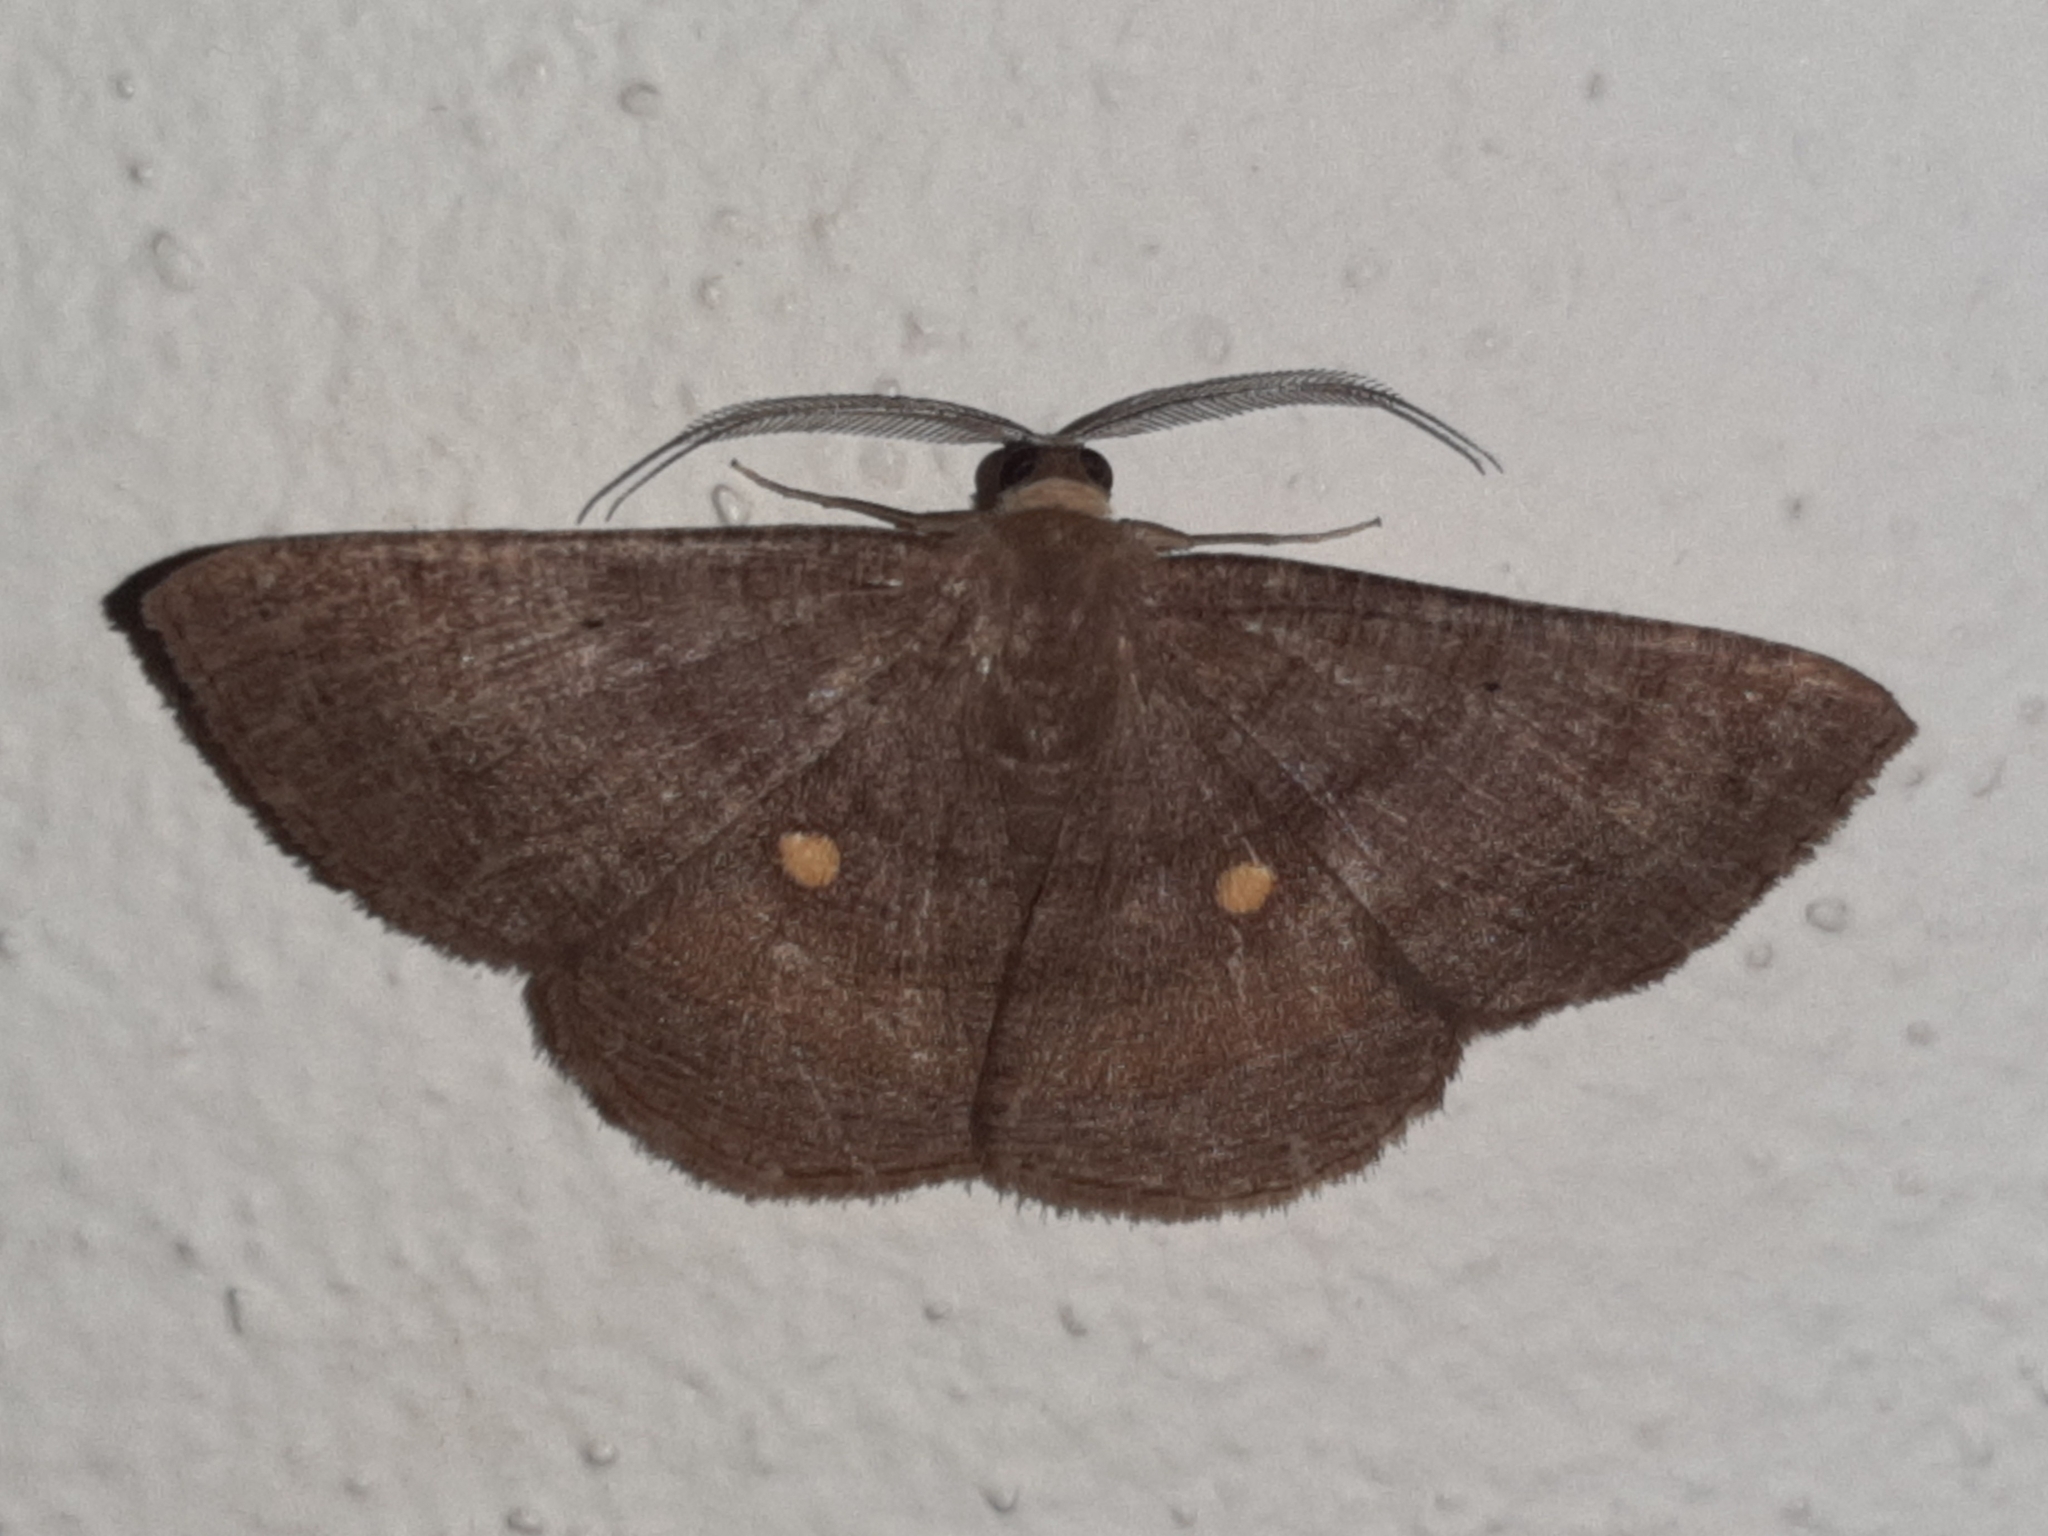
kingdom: Animalia
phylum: Arthropoda
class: Insecta
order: Lepidoptera
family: Geometridae
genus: Parilexia
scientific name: Parilexia cermala
